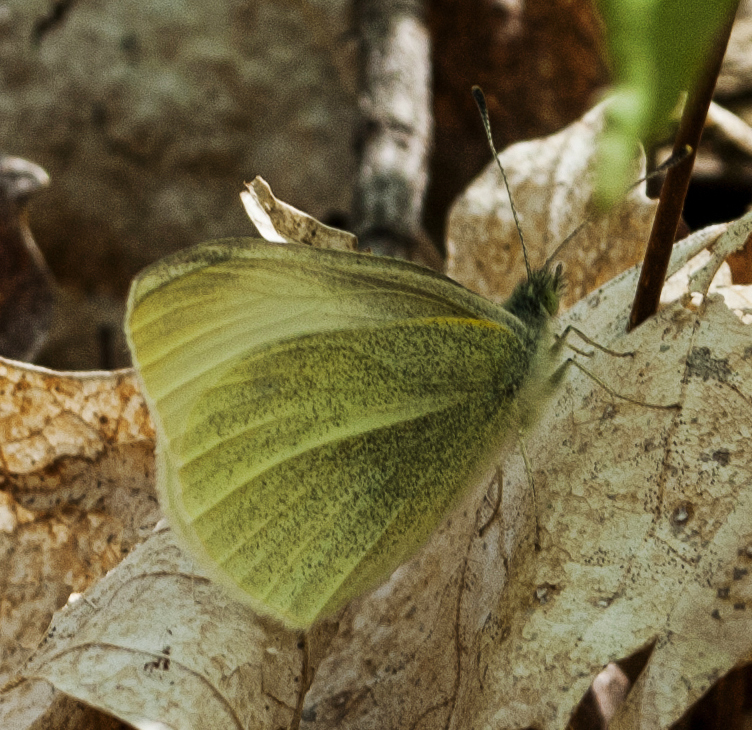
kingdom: Animalia
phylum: Arthropoda
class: Insecta
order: Lepidoptera
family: Pieridae
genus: Pieris
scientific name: Pieris rapae
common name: Small white
